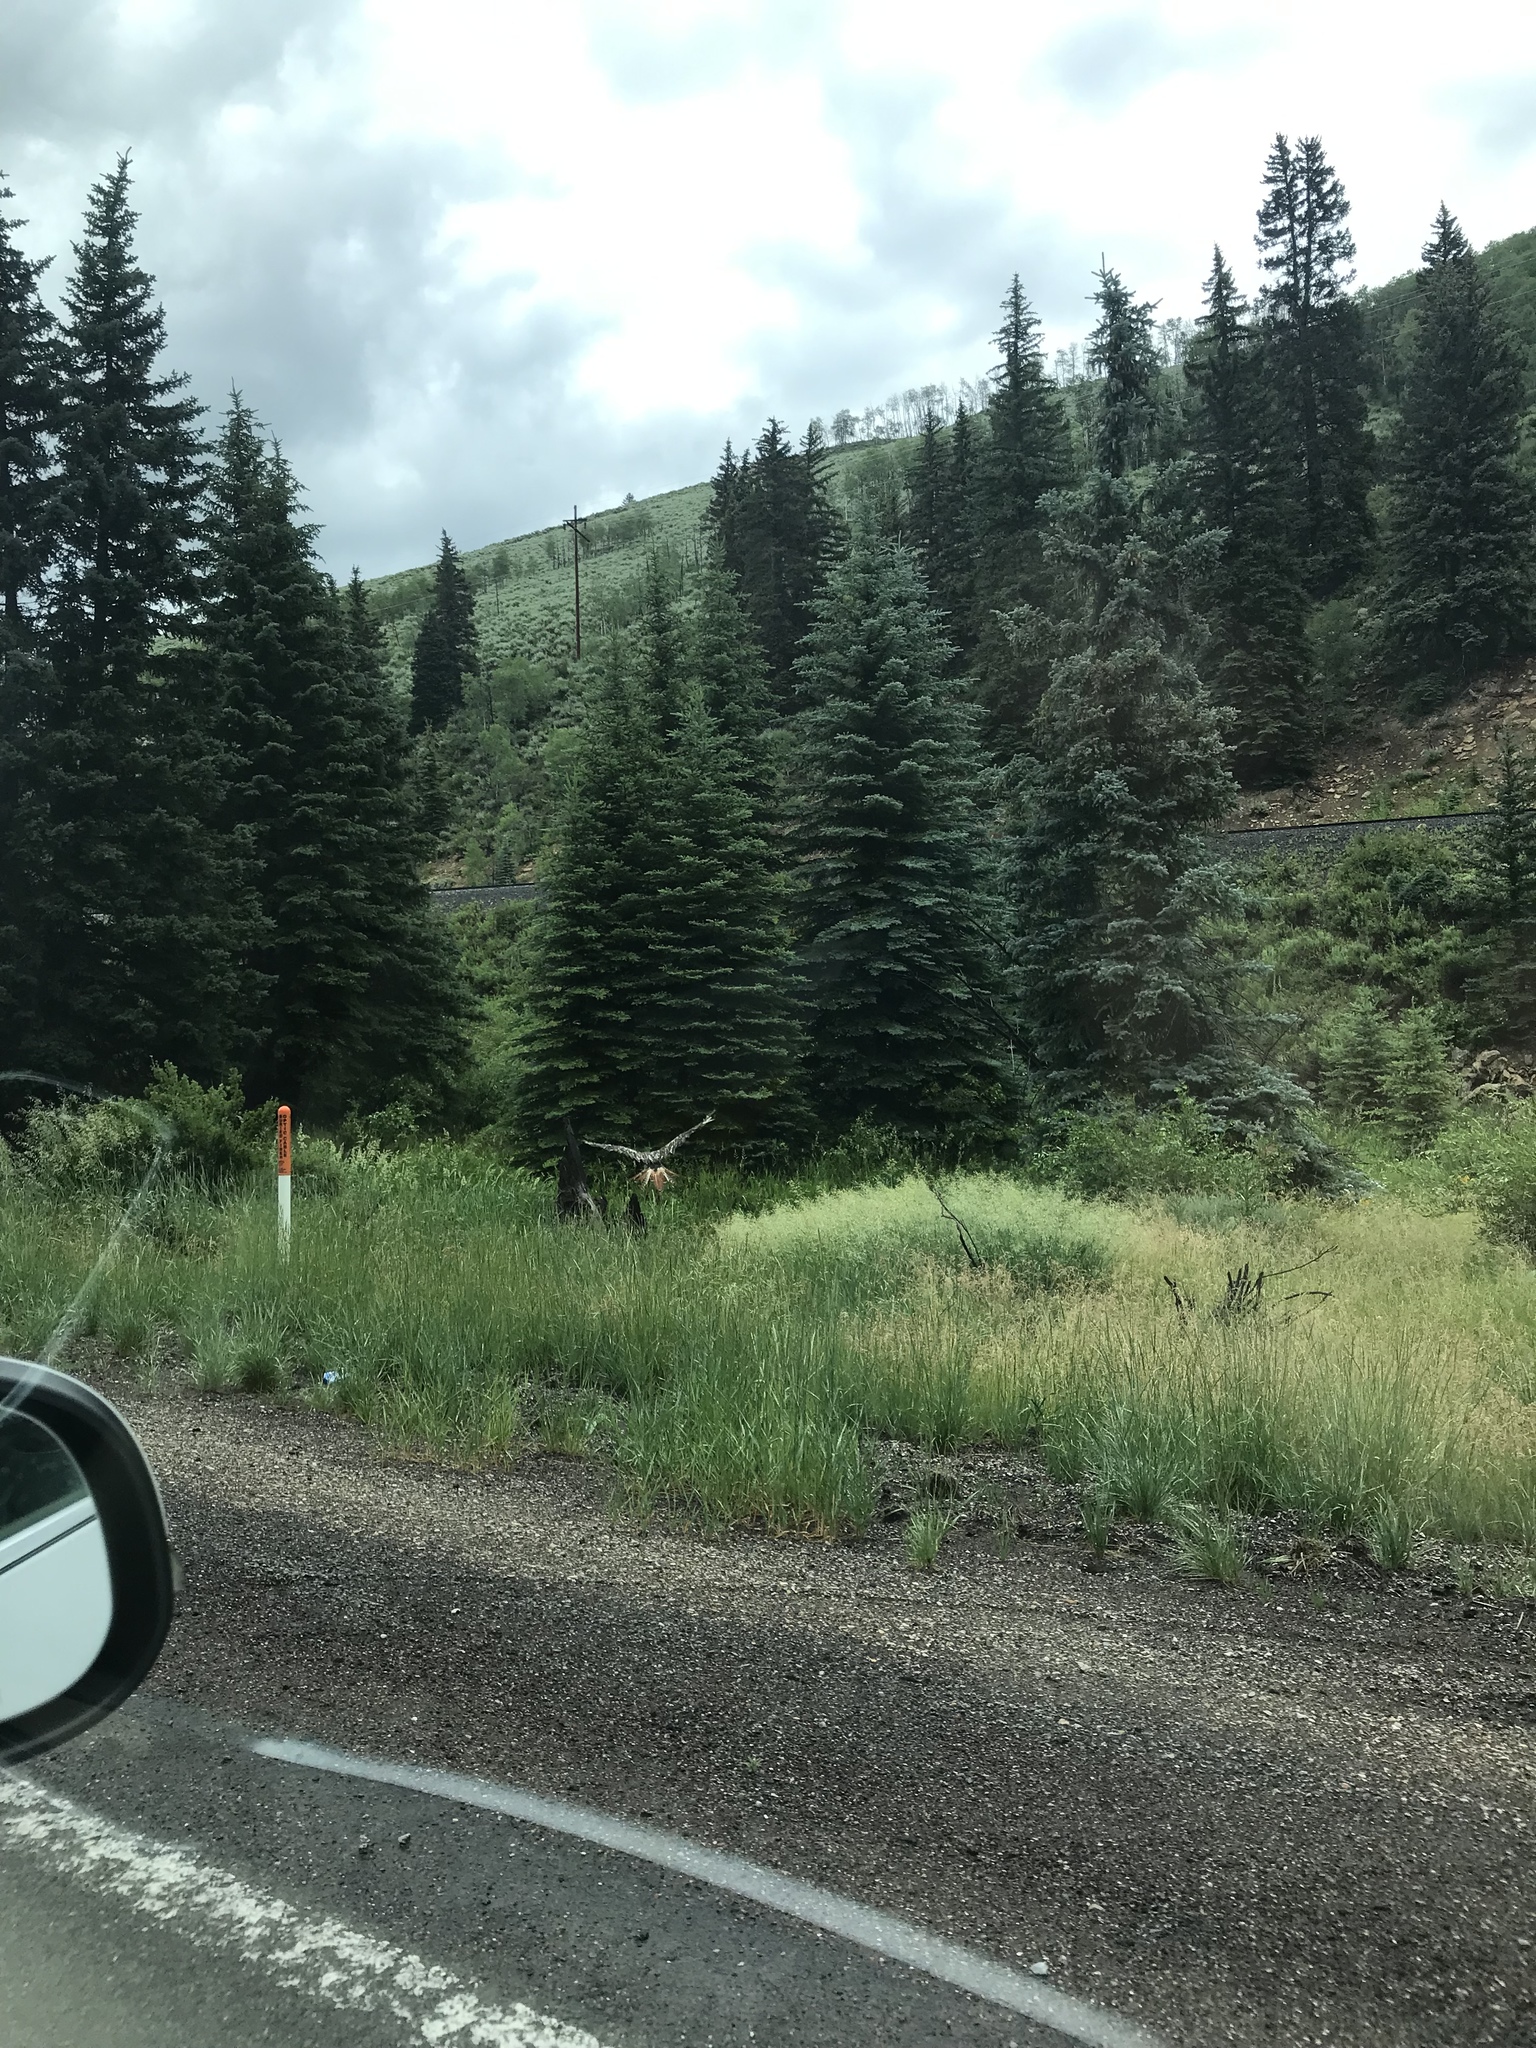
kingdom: Animalia
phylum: Chordata
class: Aves
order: Accipitriformes
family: Accipitridae
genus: Buteo
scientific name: Buteo jamaicensis
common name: Red-tailed hawk
